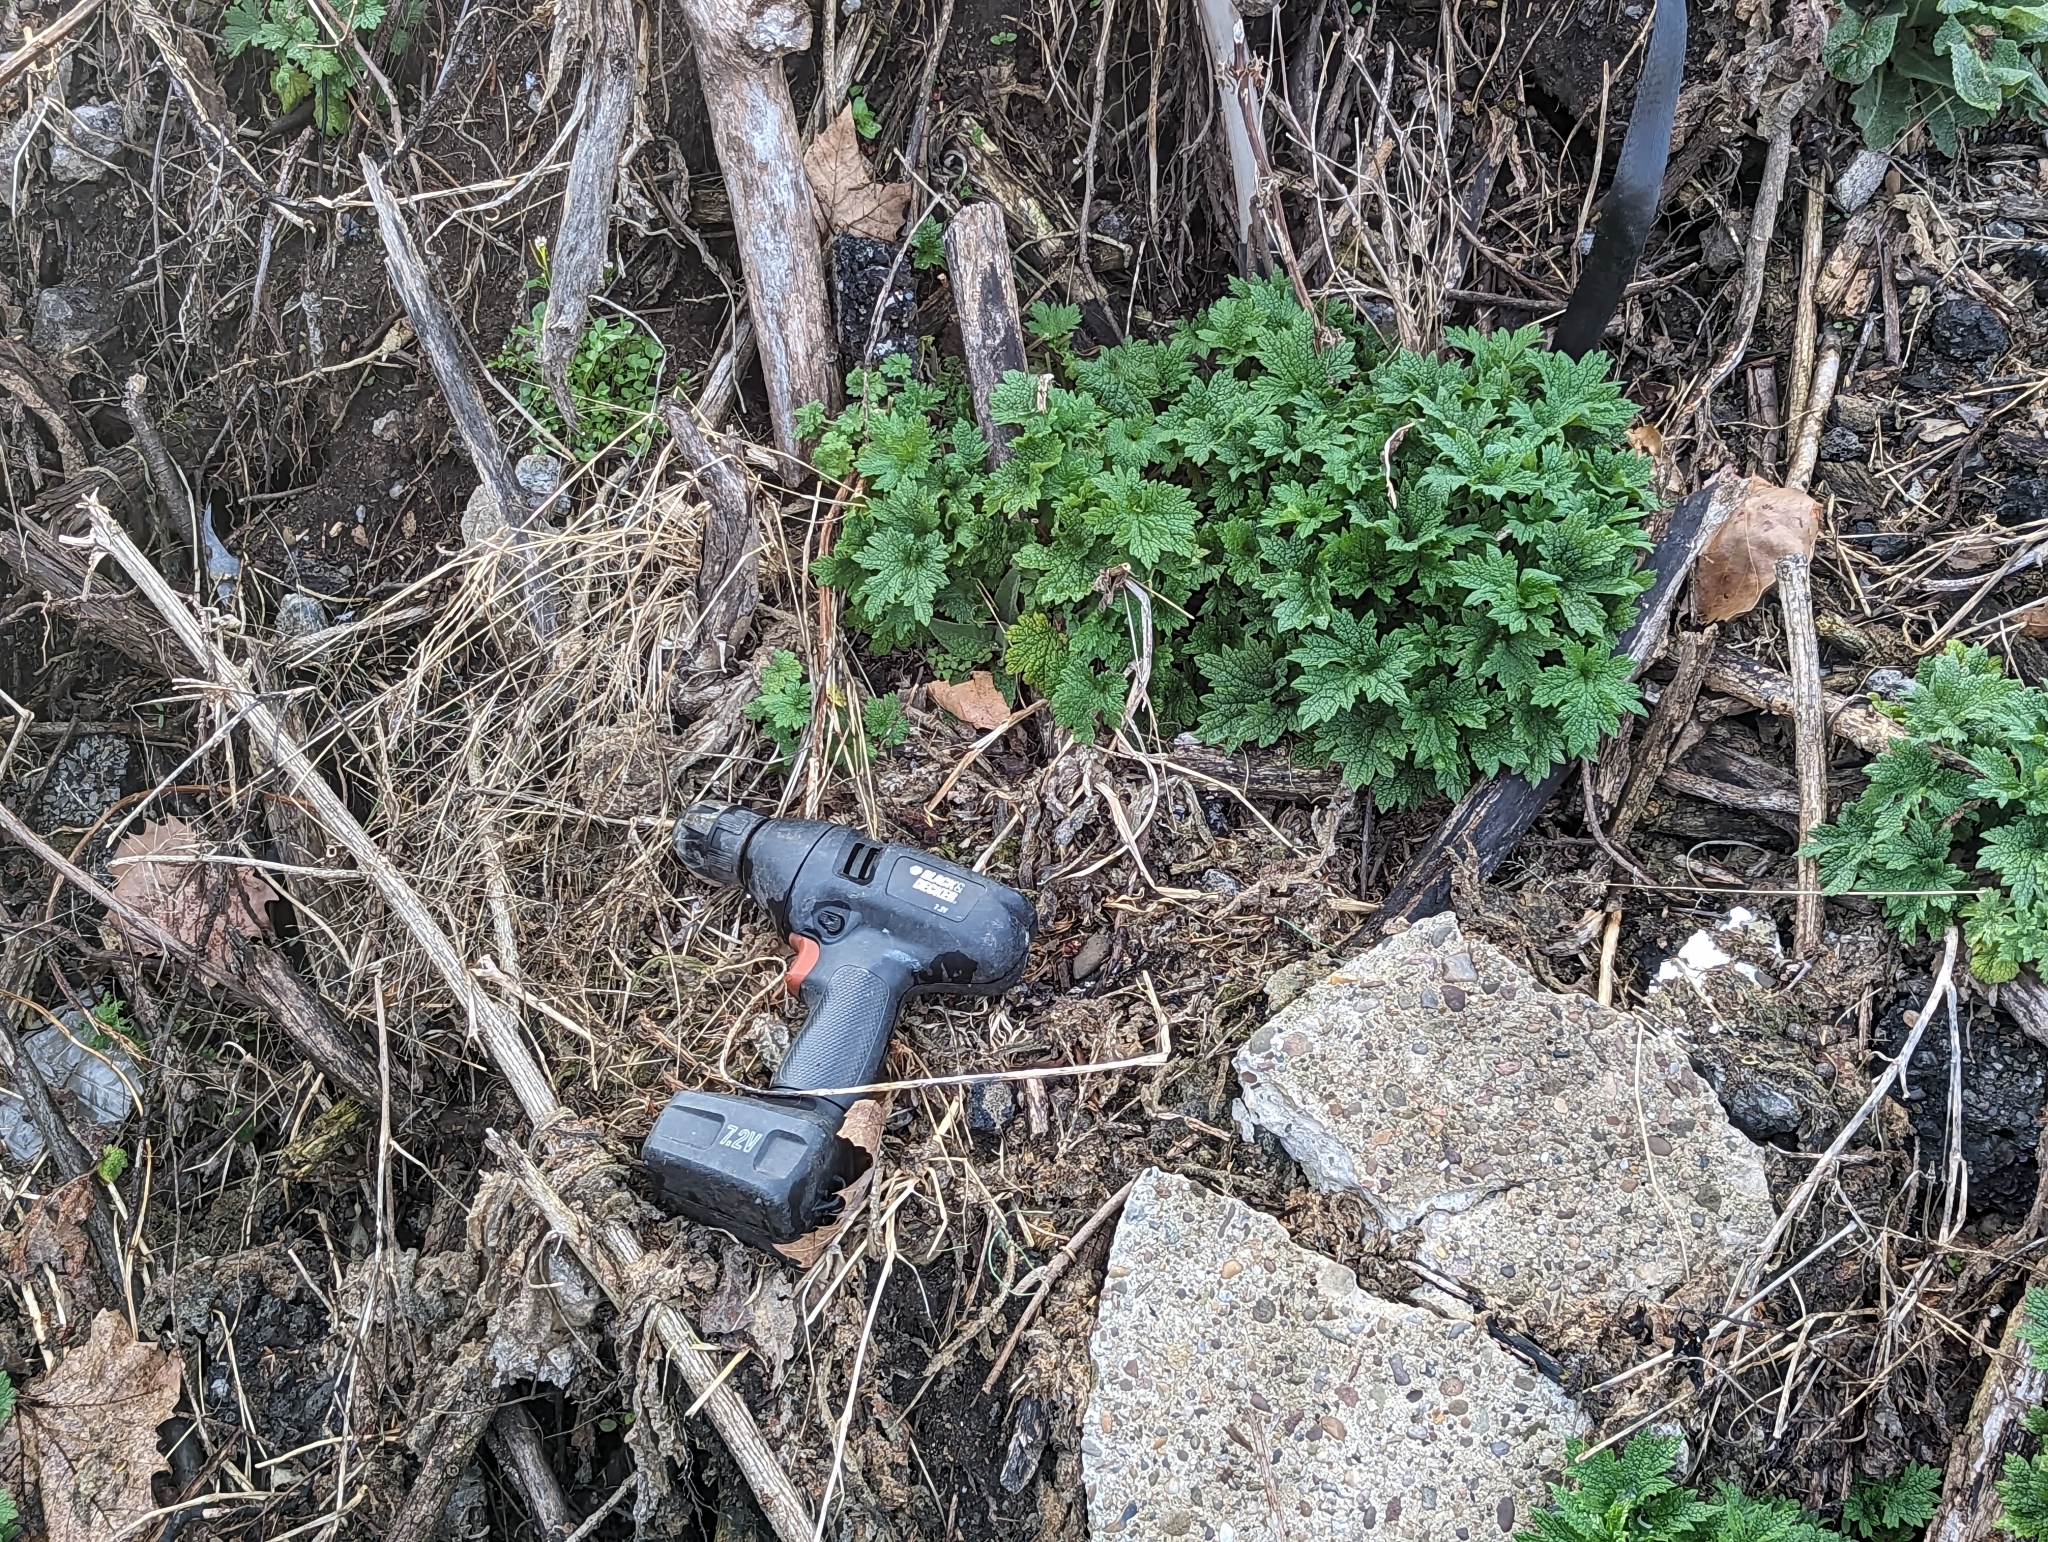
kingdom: Plantae
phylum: Tracheophyta
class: Magnoliopsida
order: Lamiales
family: Lamiaceae
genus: Leonurus
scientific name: Leonurus cardiaca
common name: Motherwort
